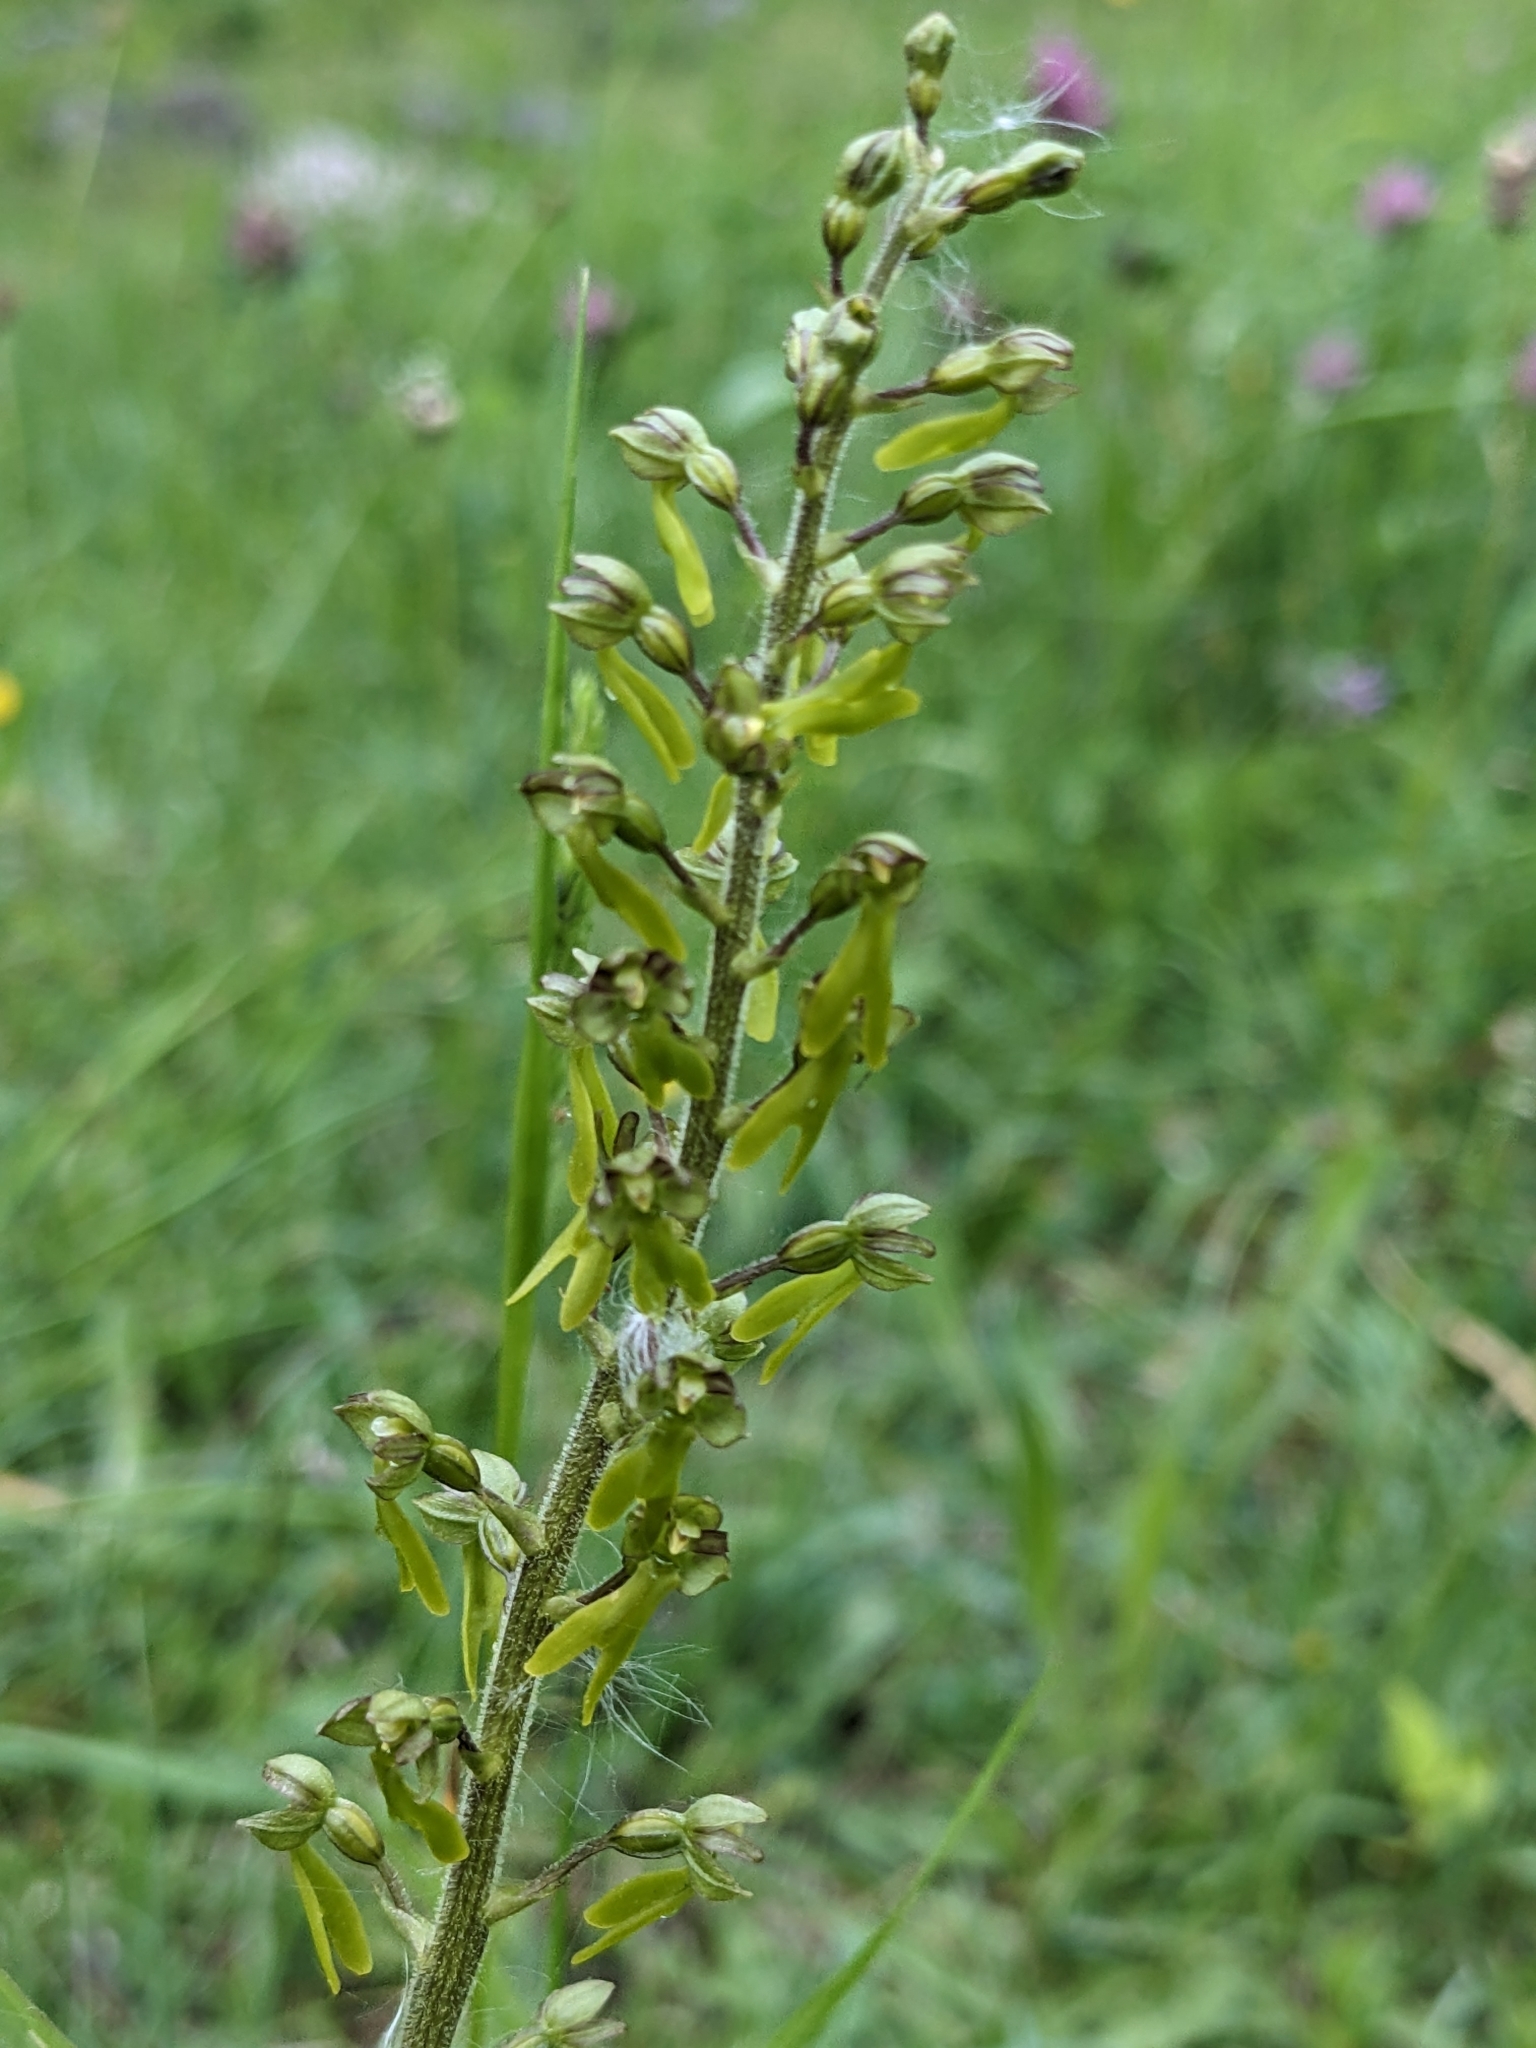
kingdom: Plantae
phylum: Tracheophyta
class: Liliopsida
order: Asparagales
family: Orchidaceae
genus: Neottia
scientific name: Neottia ovata
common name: Common twayblade
